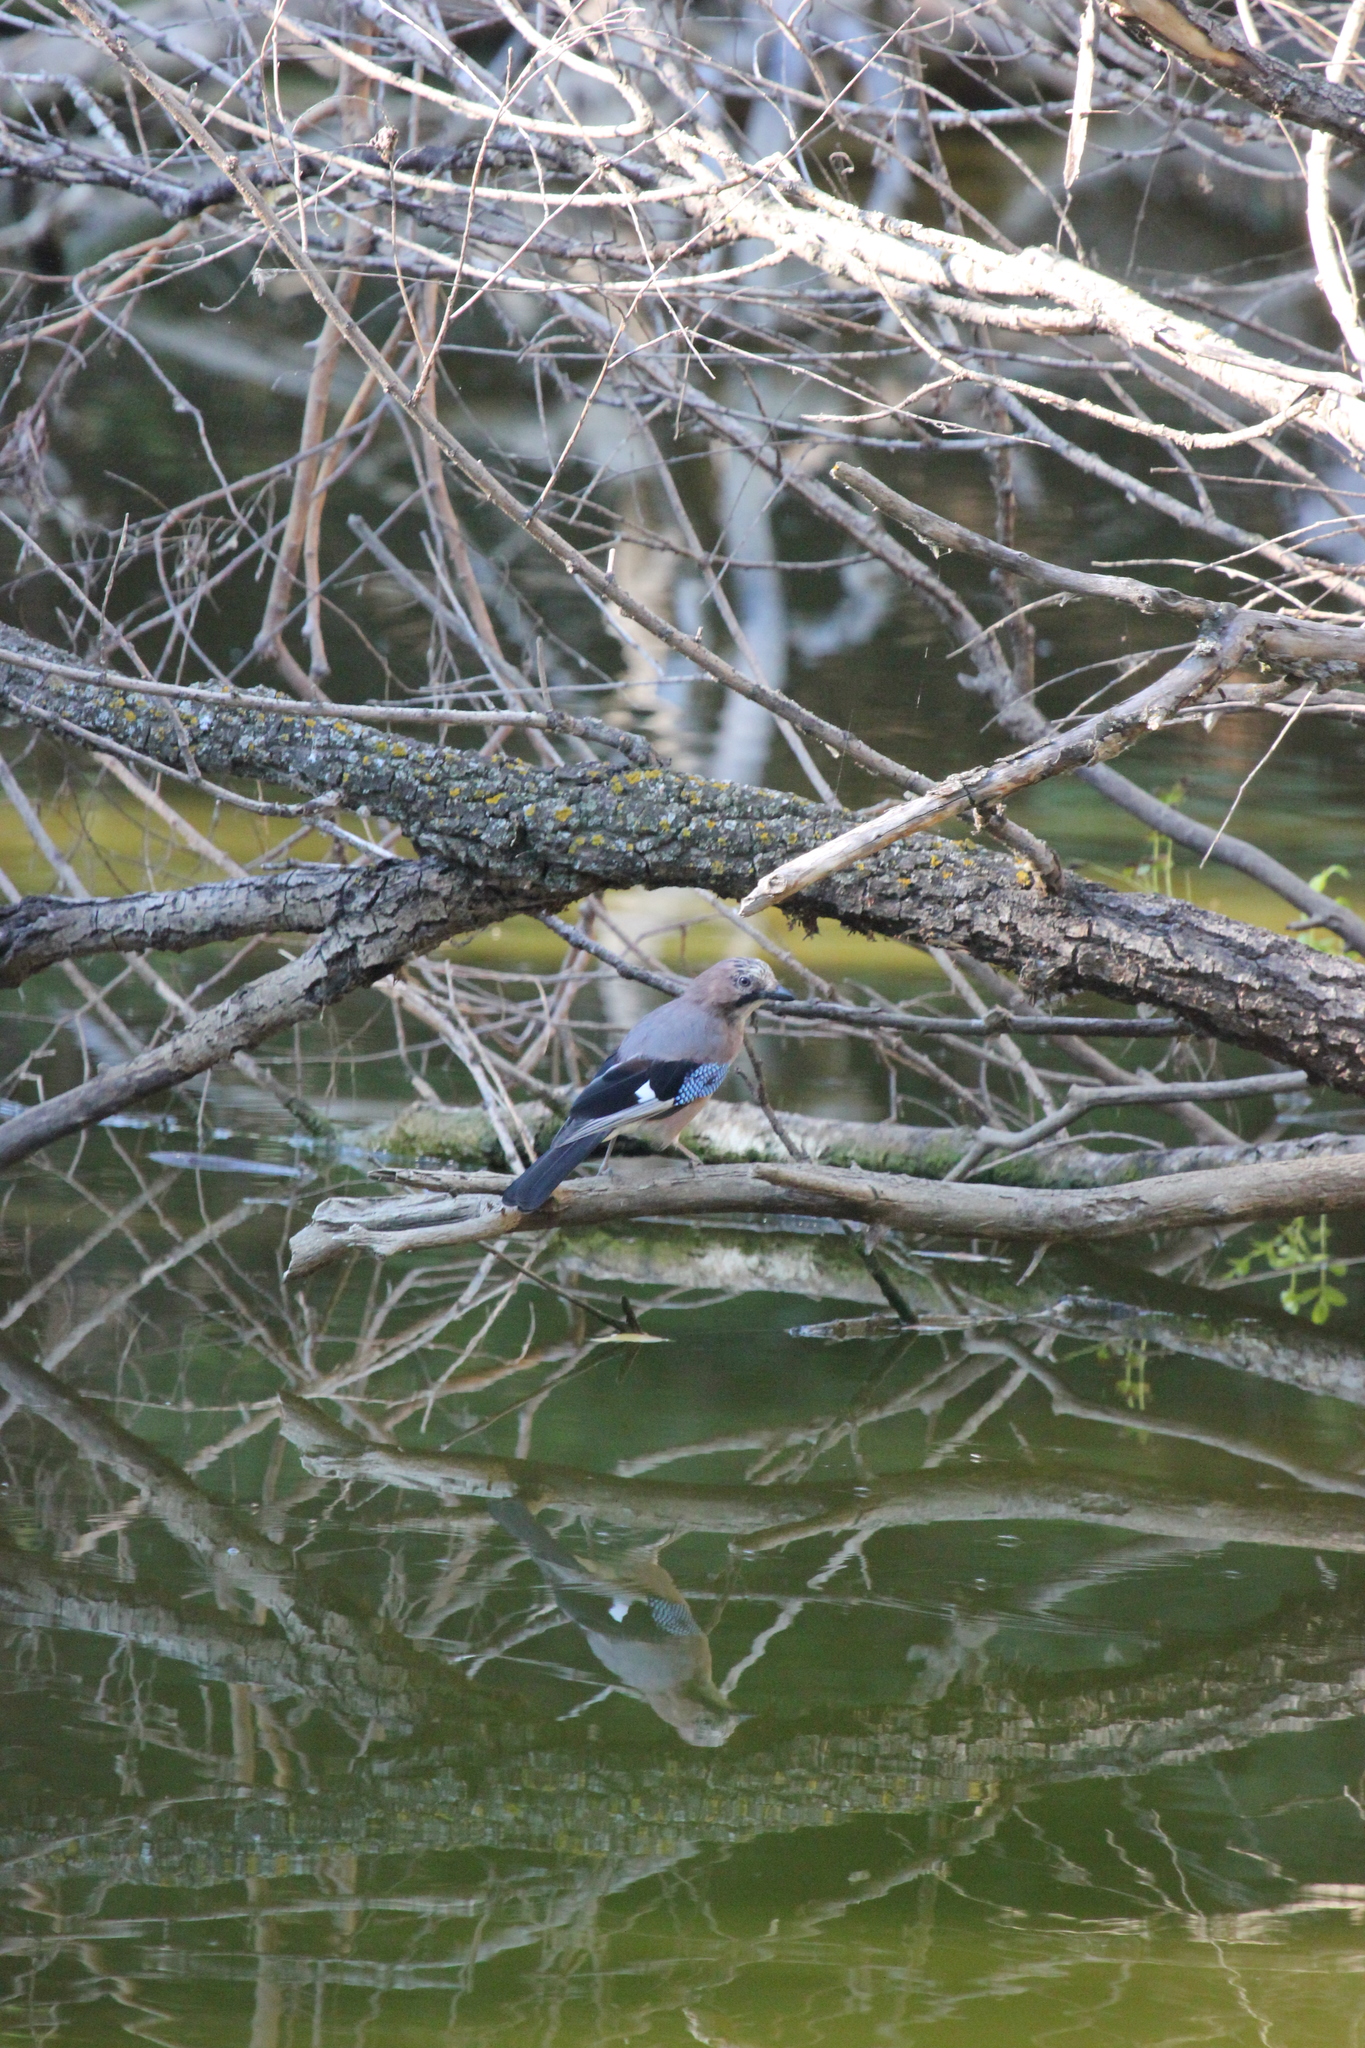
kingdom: Animalia
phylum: Chordata
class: Aves
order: Passeriformes
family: Corvidae
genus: Garrulus
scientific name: Garrulus glandarius
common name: Eurasian jay
